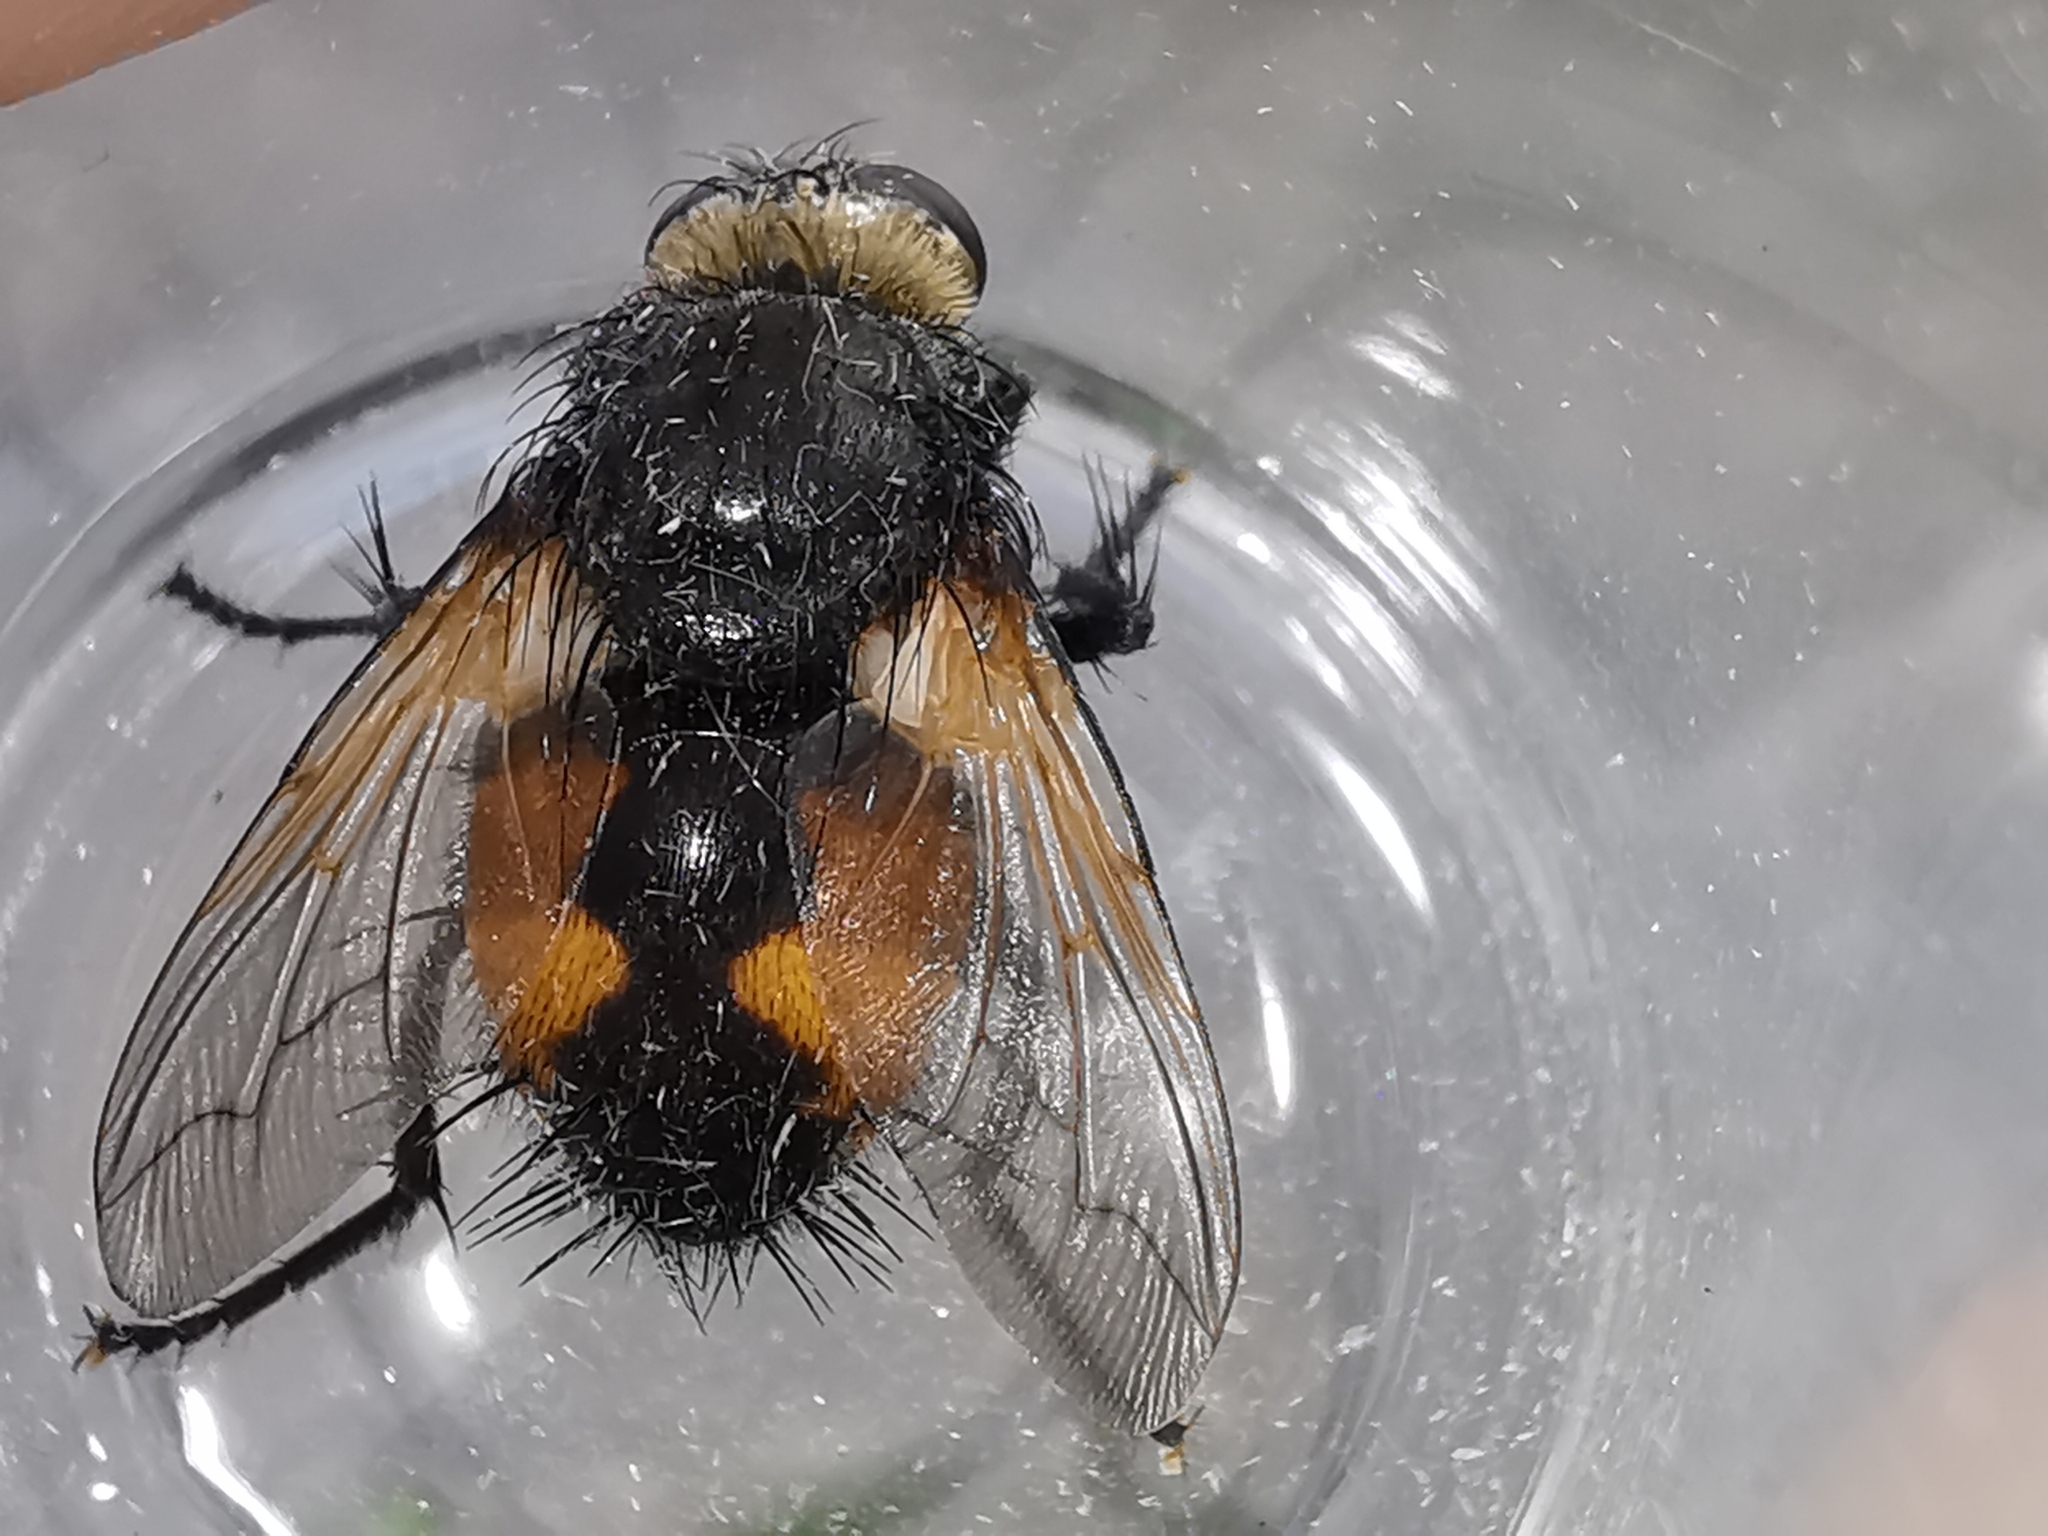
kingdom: Animalia
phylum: Arthropoda
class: Insecta
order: Diptera
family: Tachinidae
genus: Nowickia
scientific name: Nowickia ferox
